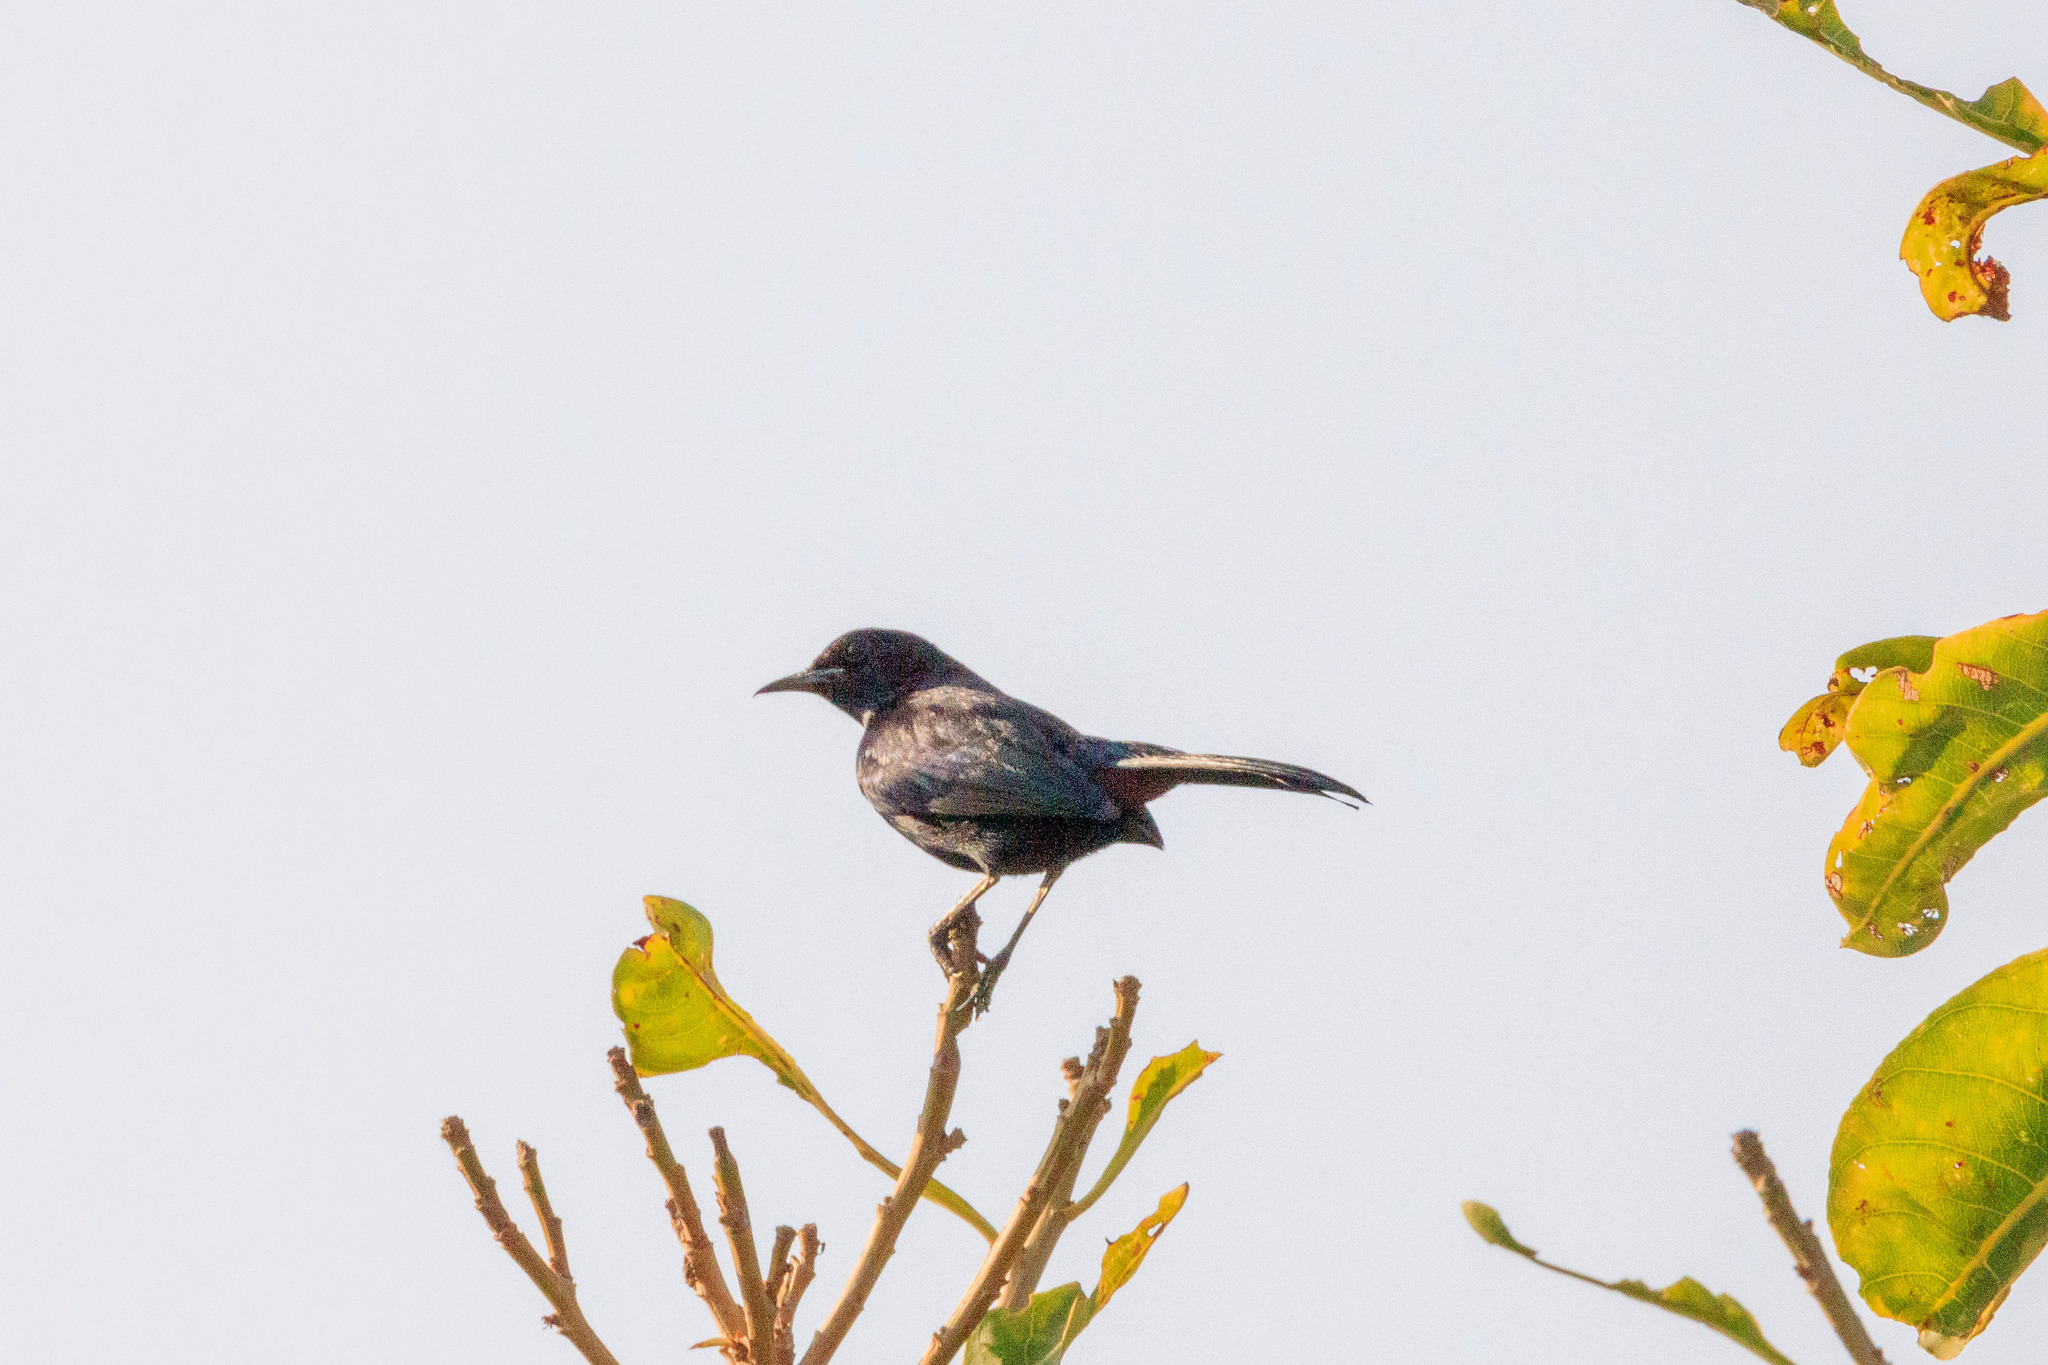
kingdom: Animalia
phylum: Chordata
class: Aves
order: Passeriformes
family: Muscicapidae
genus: Saxicoloides
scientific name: Saxicoloides fulicatus
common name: Indian robin
